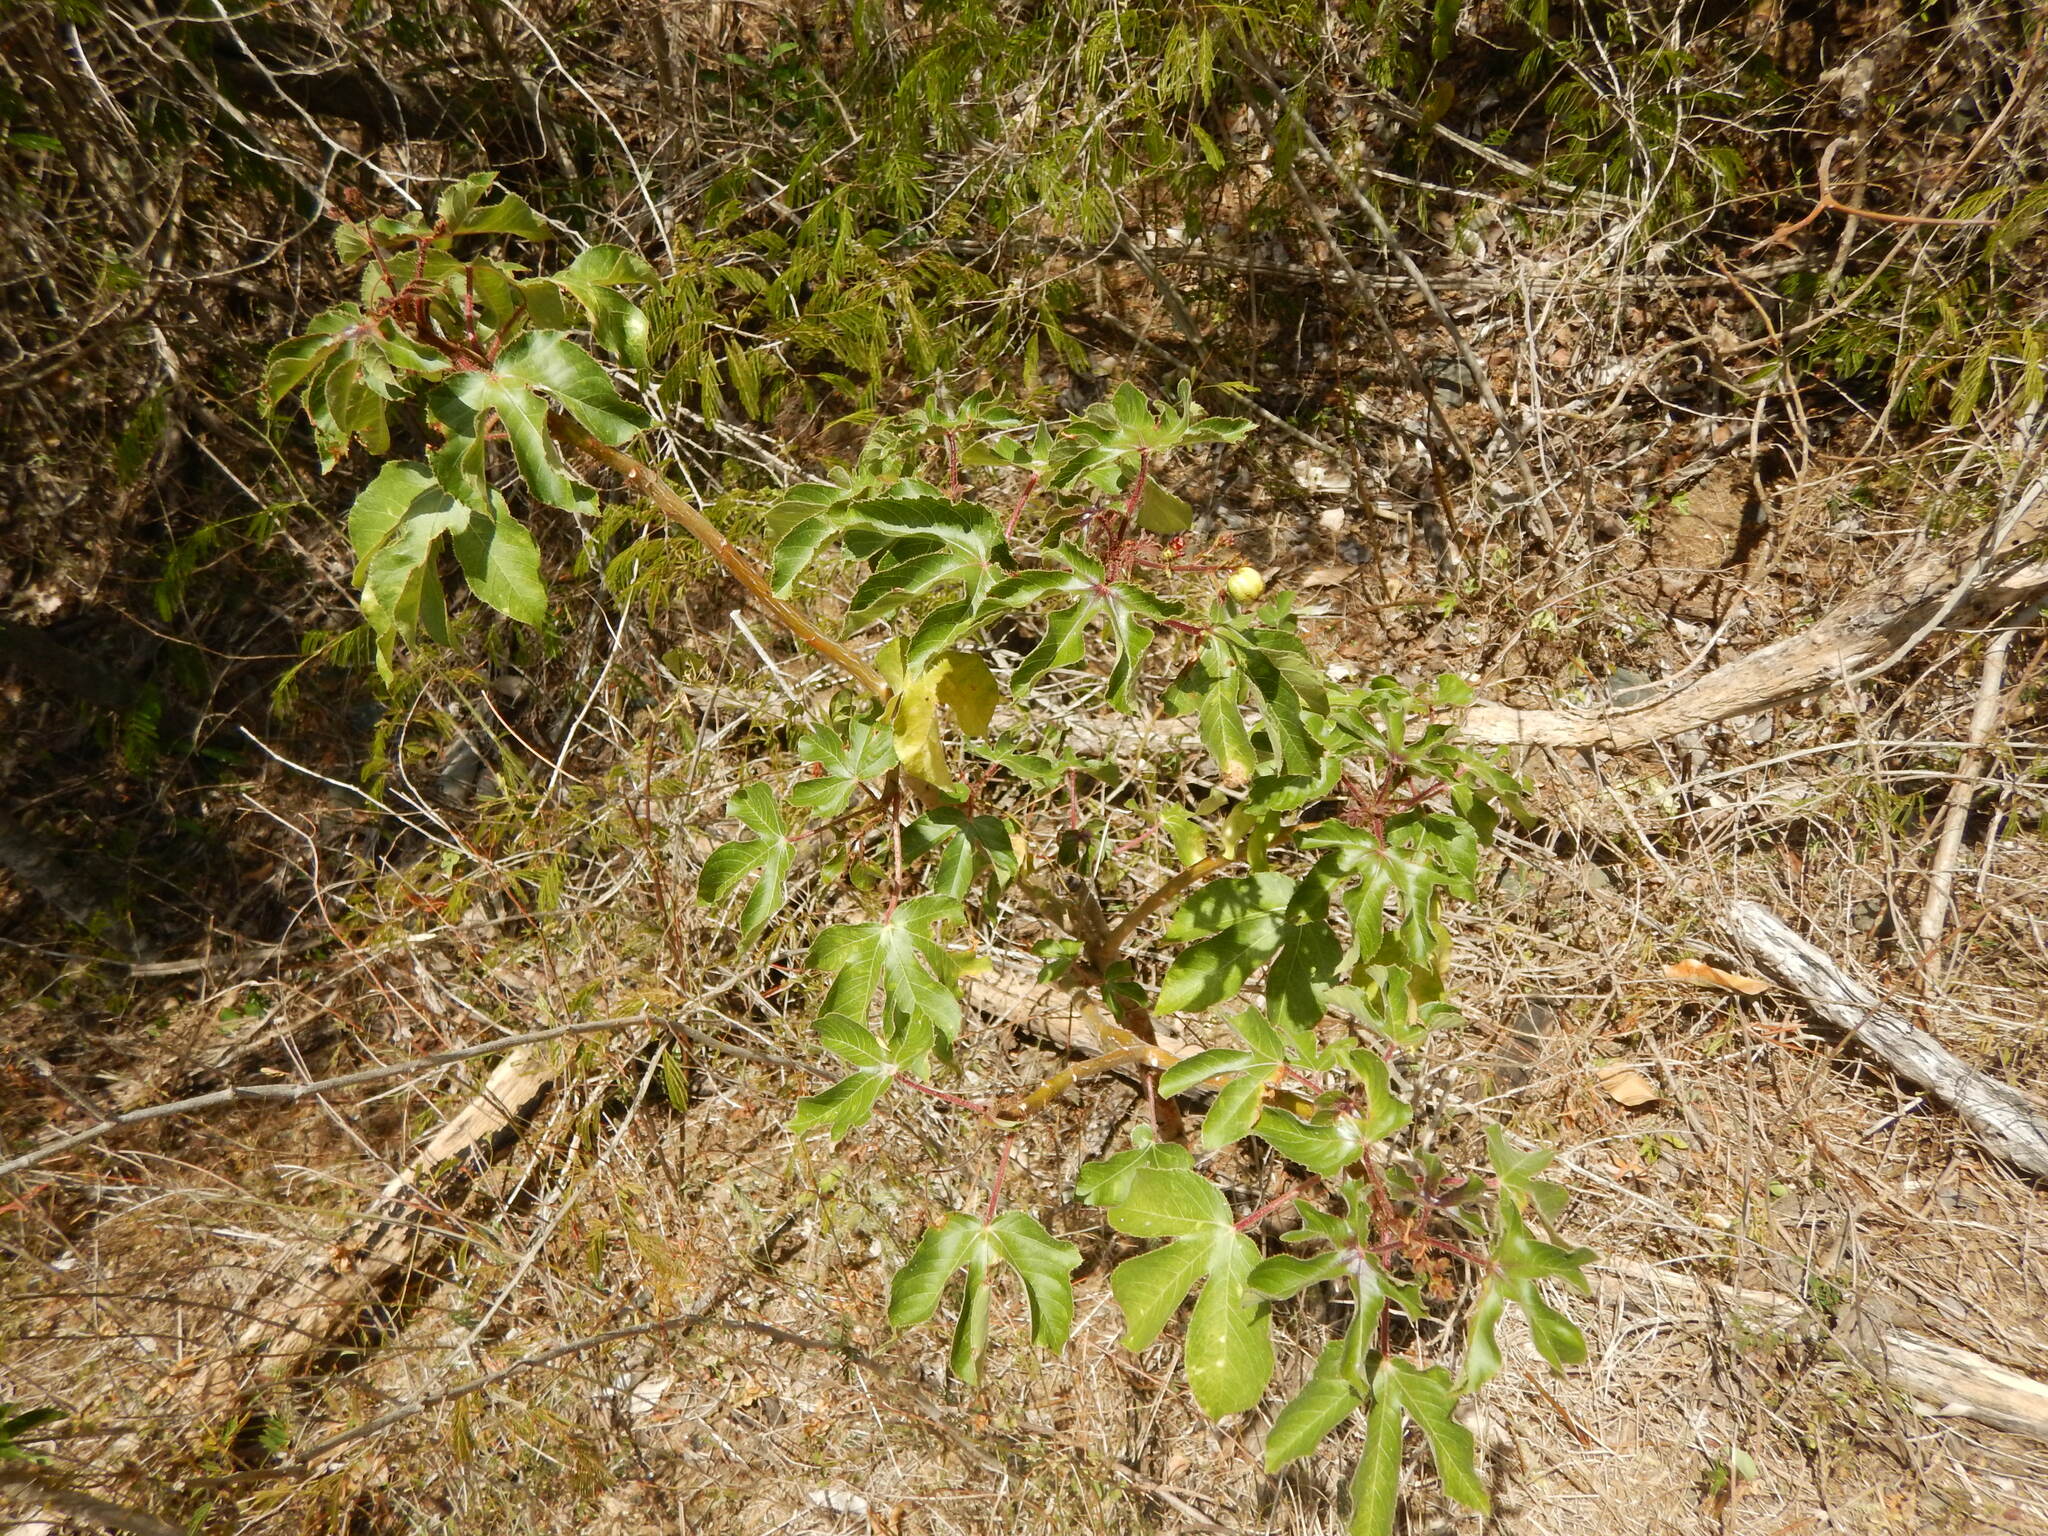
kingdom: Plantae
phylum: Tracheophyta
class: Magnoliopsida
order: Malpighiales
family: Euphorbiaceae
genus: Jatropha
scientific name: Jatropha gossypiifolia
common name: Bellyache bush
